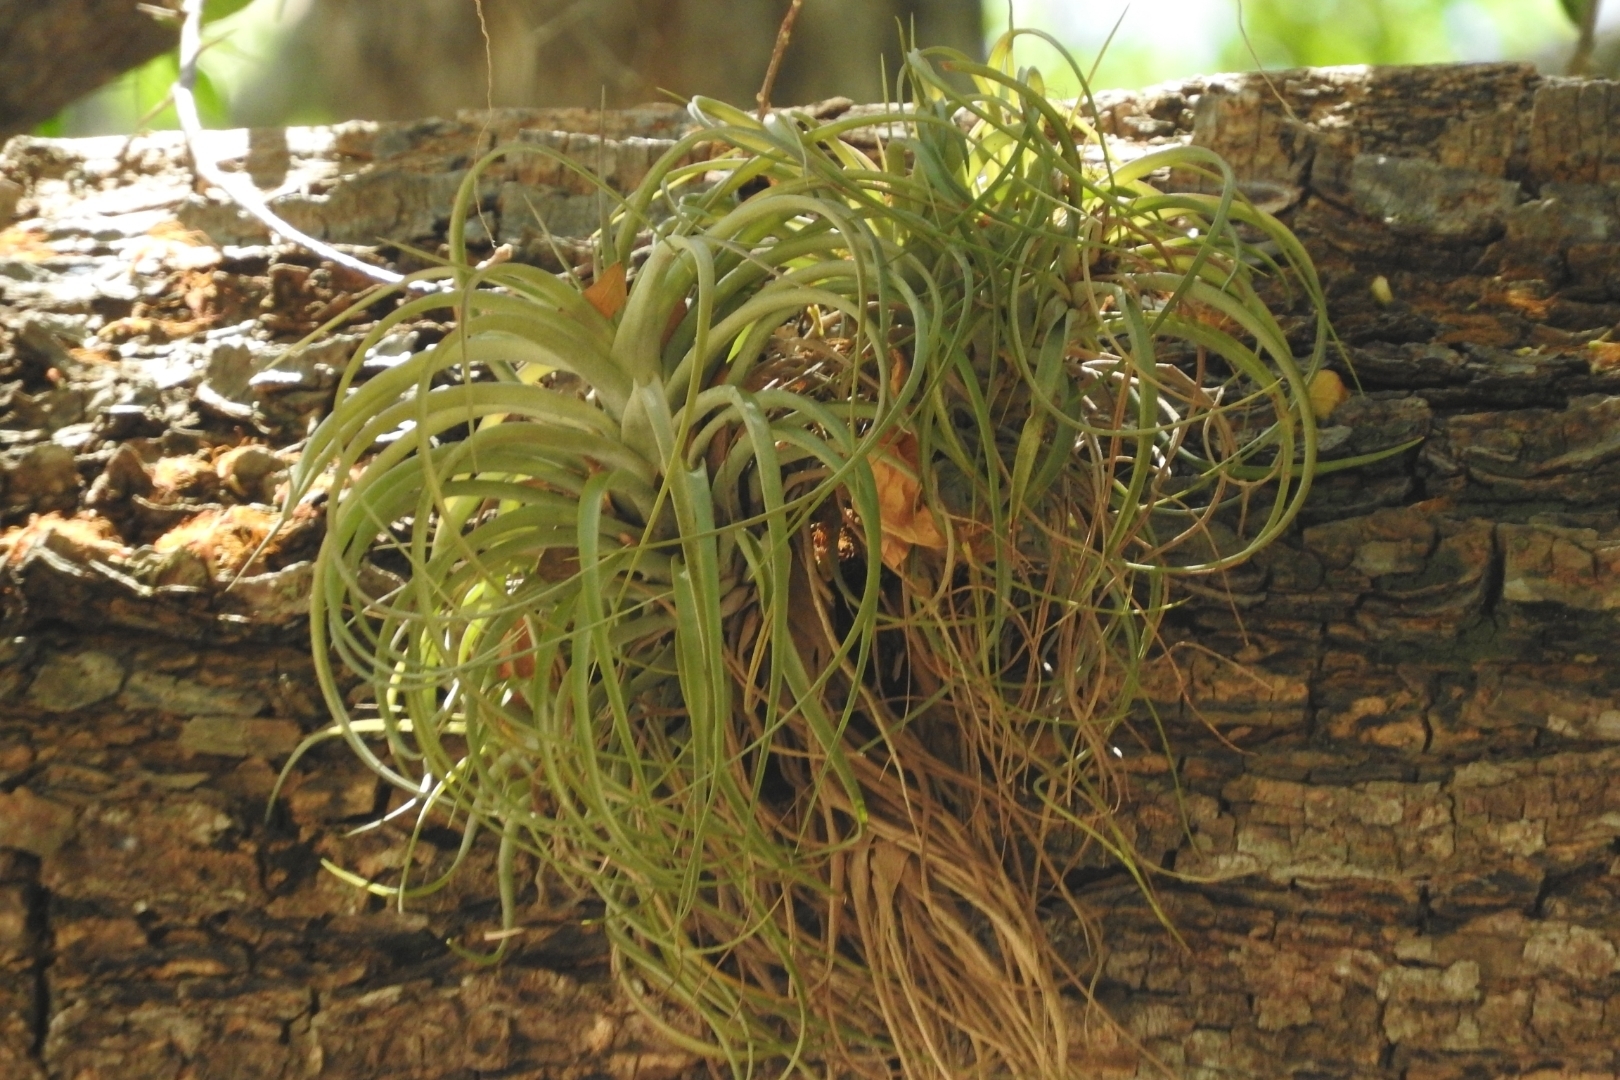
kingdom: Plantae
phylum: Tracheophyta
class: Liliopsida
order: Poales
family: Bromeliaceae
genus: Tillandsia
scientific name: Tillandsia fasciculata
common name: Giant airplant
